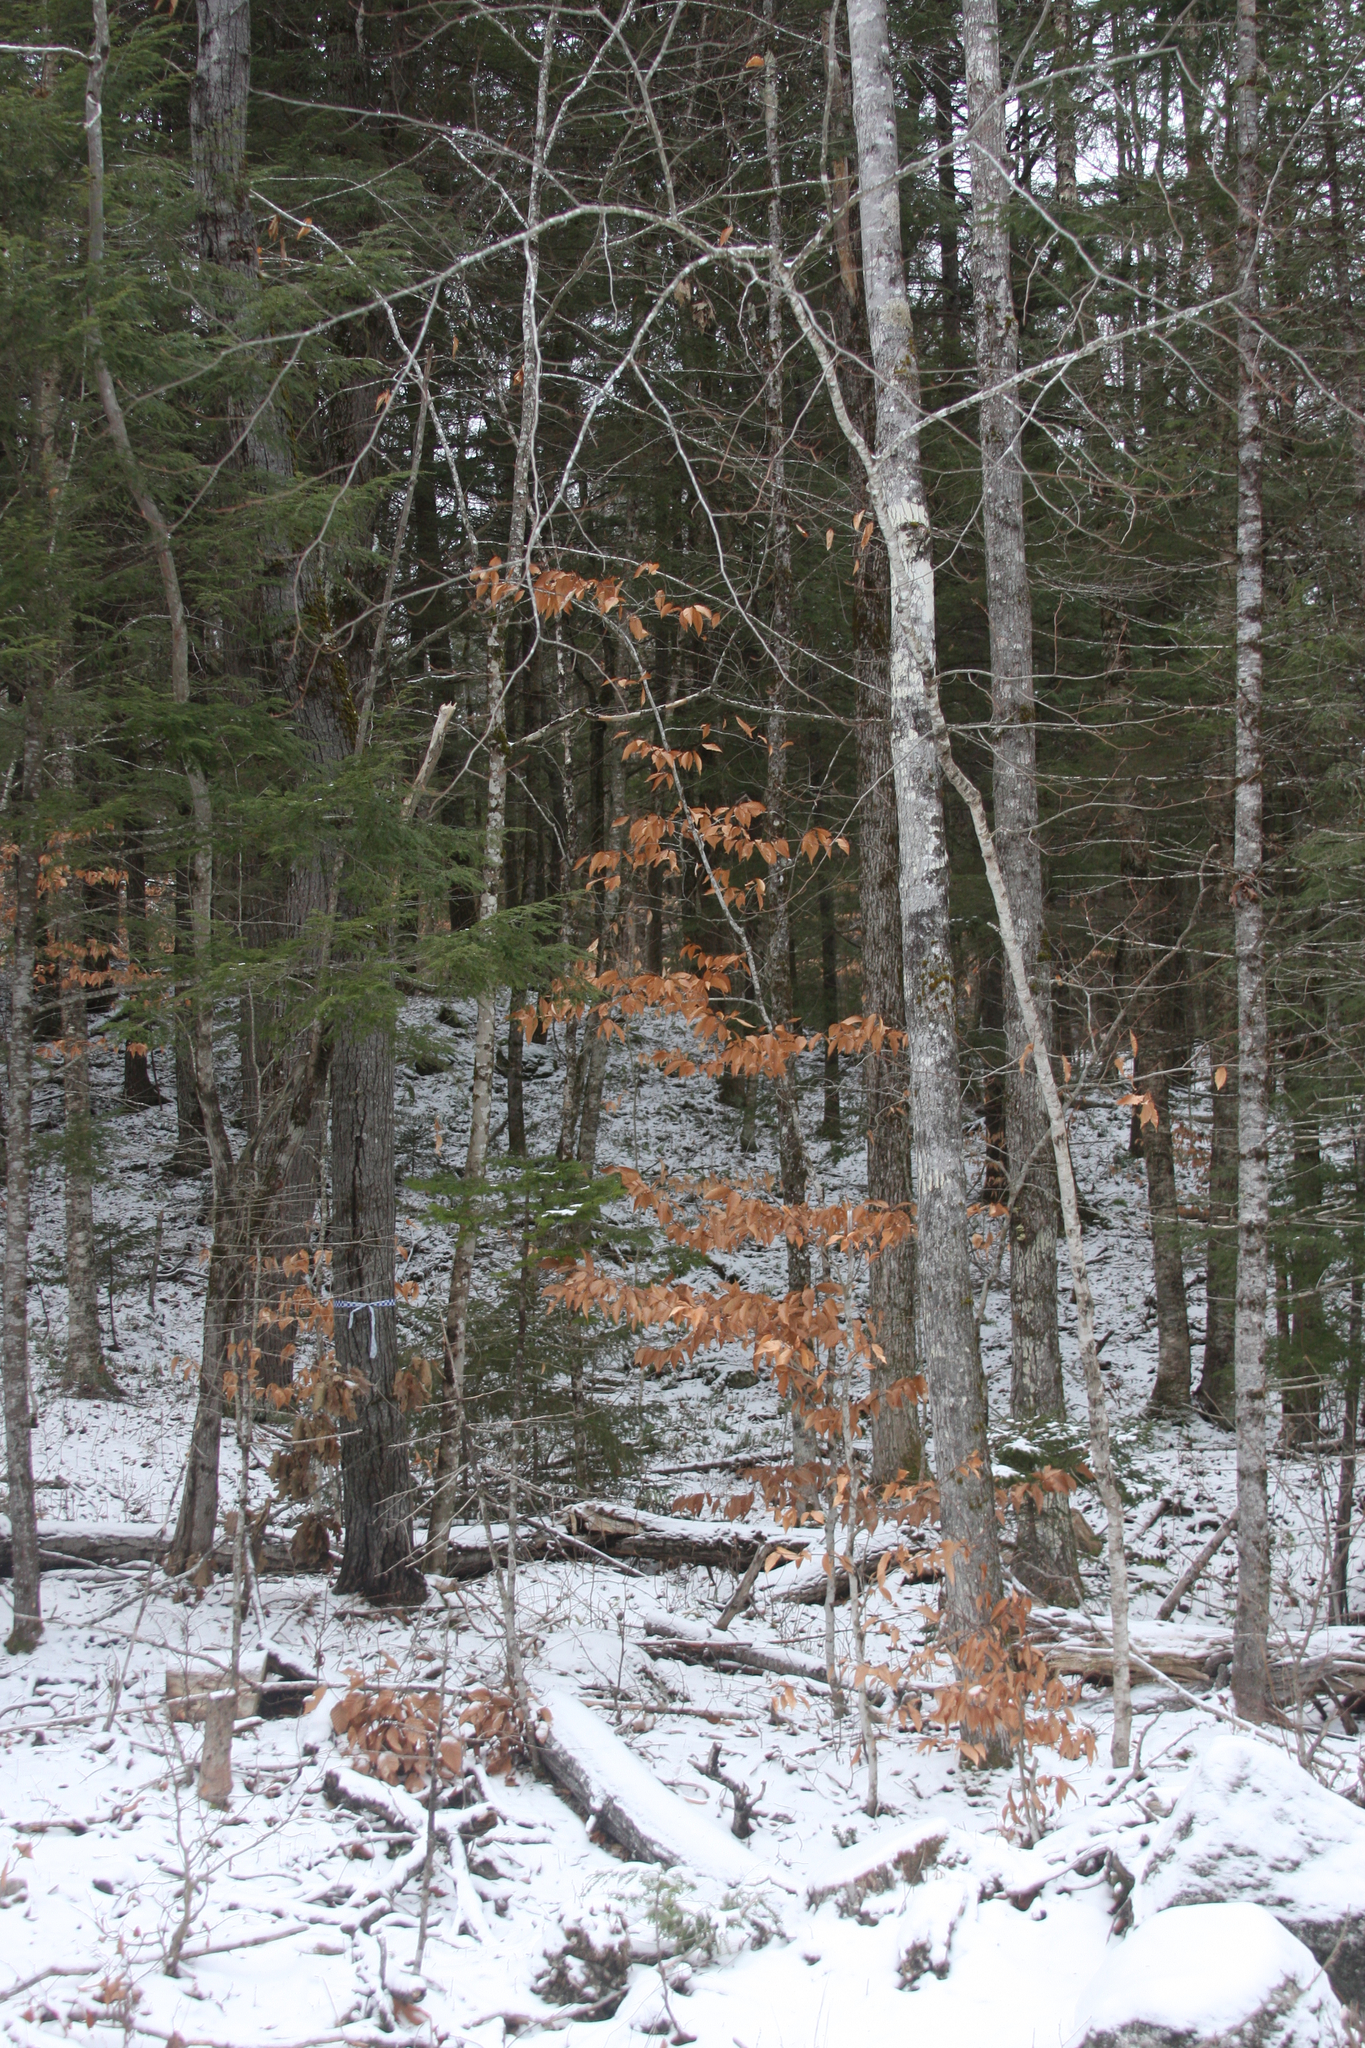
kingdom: Plantae
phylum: Tracheophyta
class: Magnoliopsida
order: Fagales
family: Fagaceae
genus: Fagus
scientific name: Fagus grandifolia
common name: American beech
